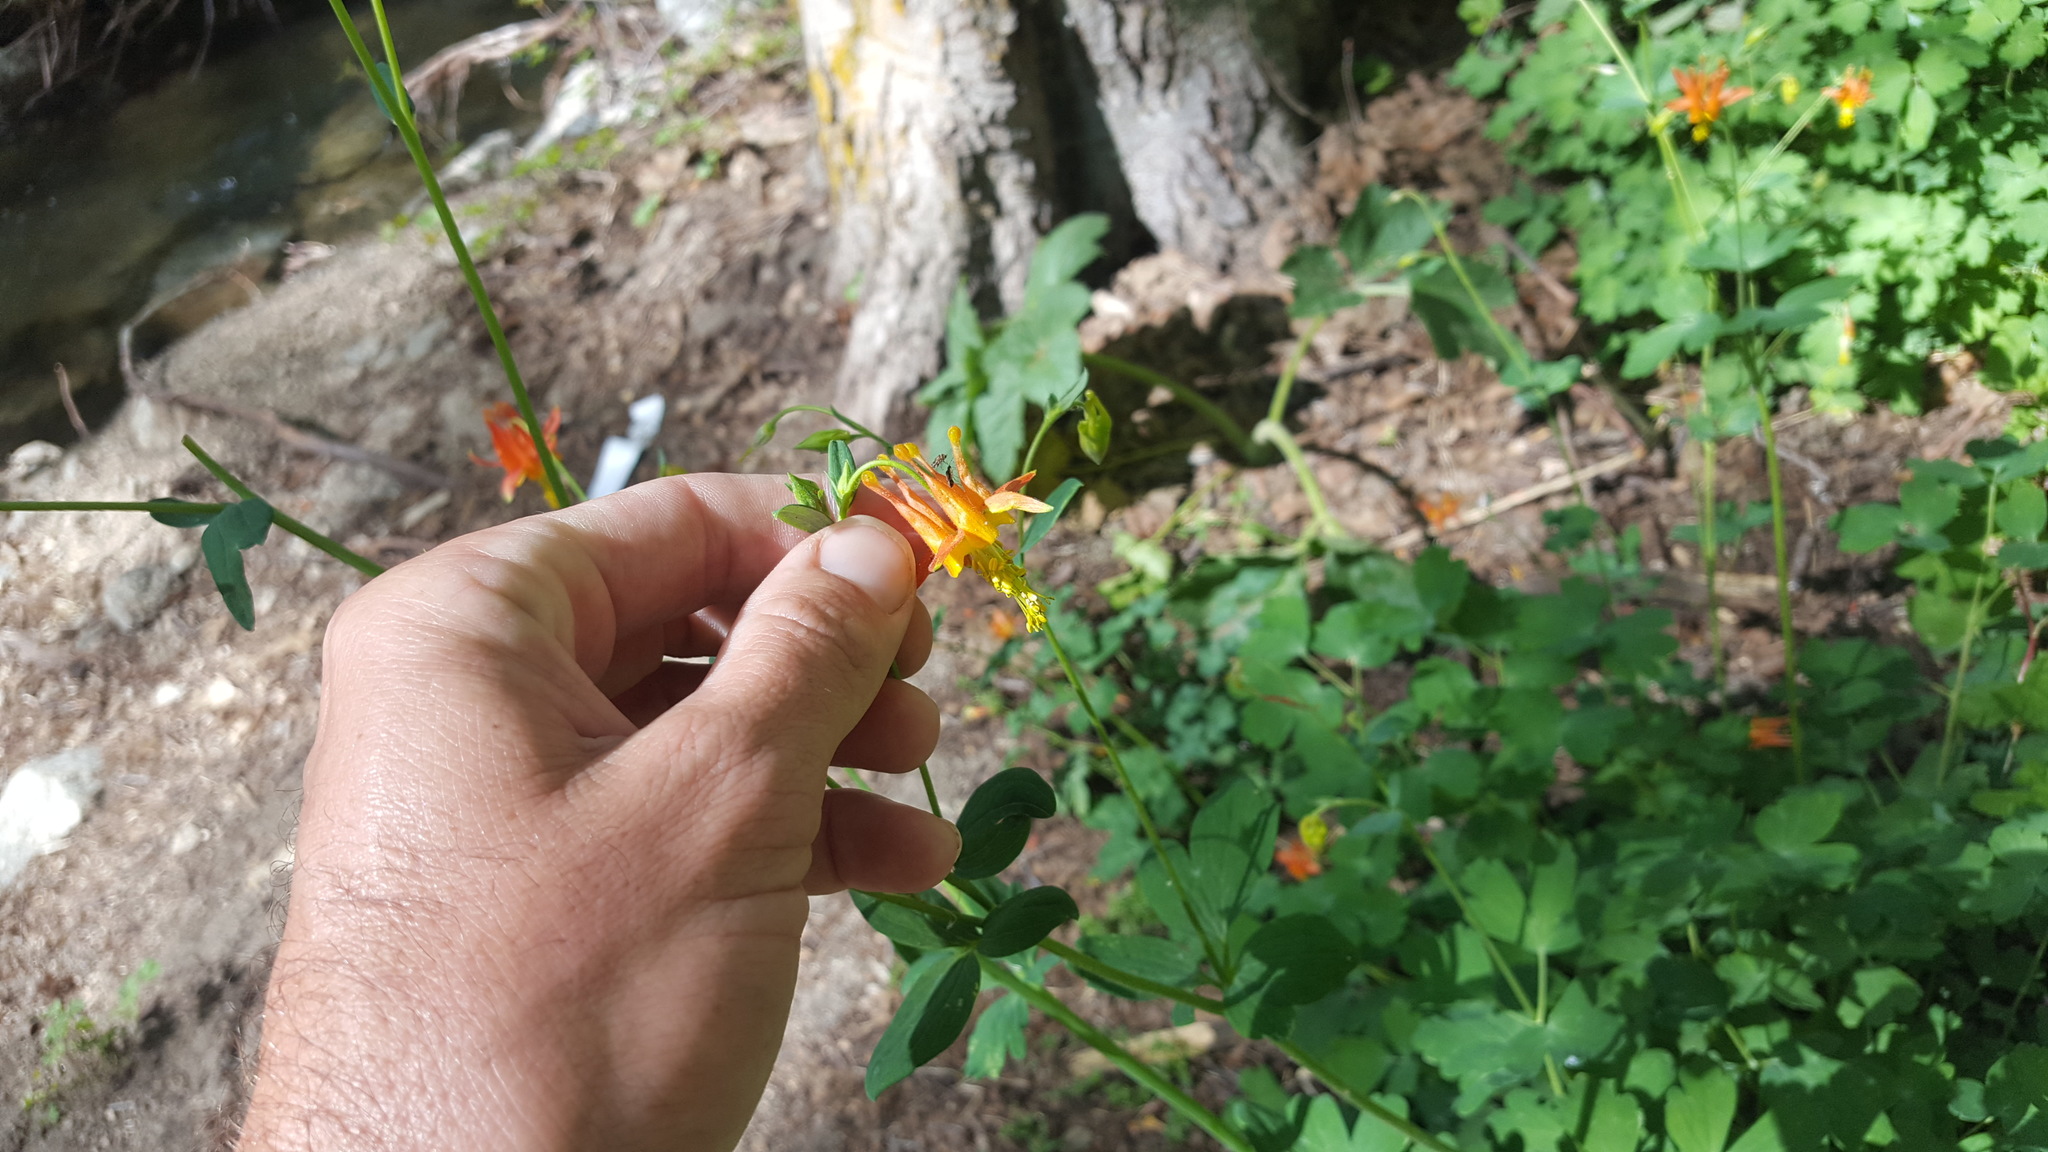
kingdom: Plantae
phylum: Tracheophyta
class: Magnoliopsida
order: Ranunculales
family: Ranunculaceae
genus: Aquilegia
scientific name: Aquilegia formosa
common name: Sitka columbine
